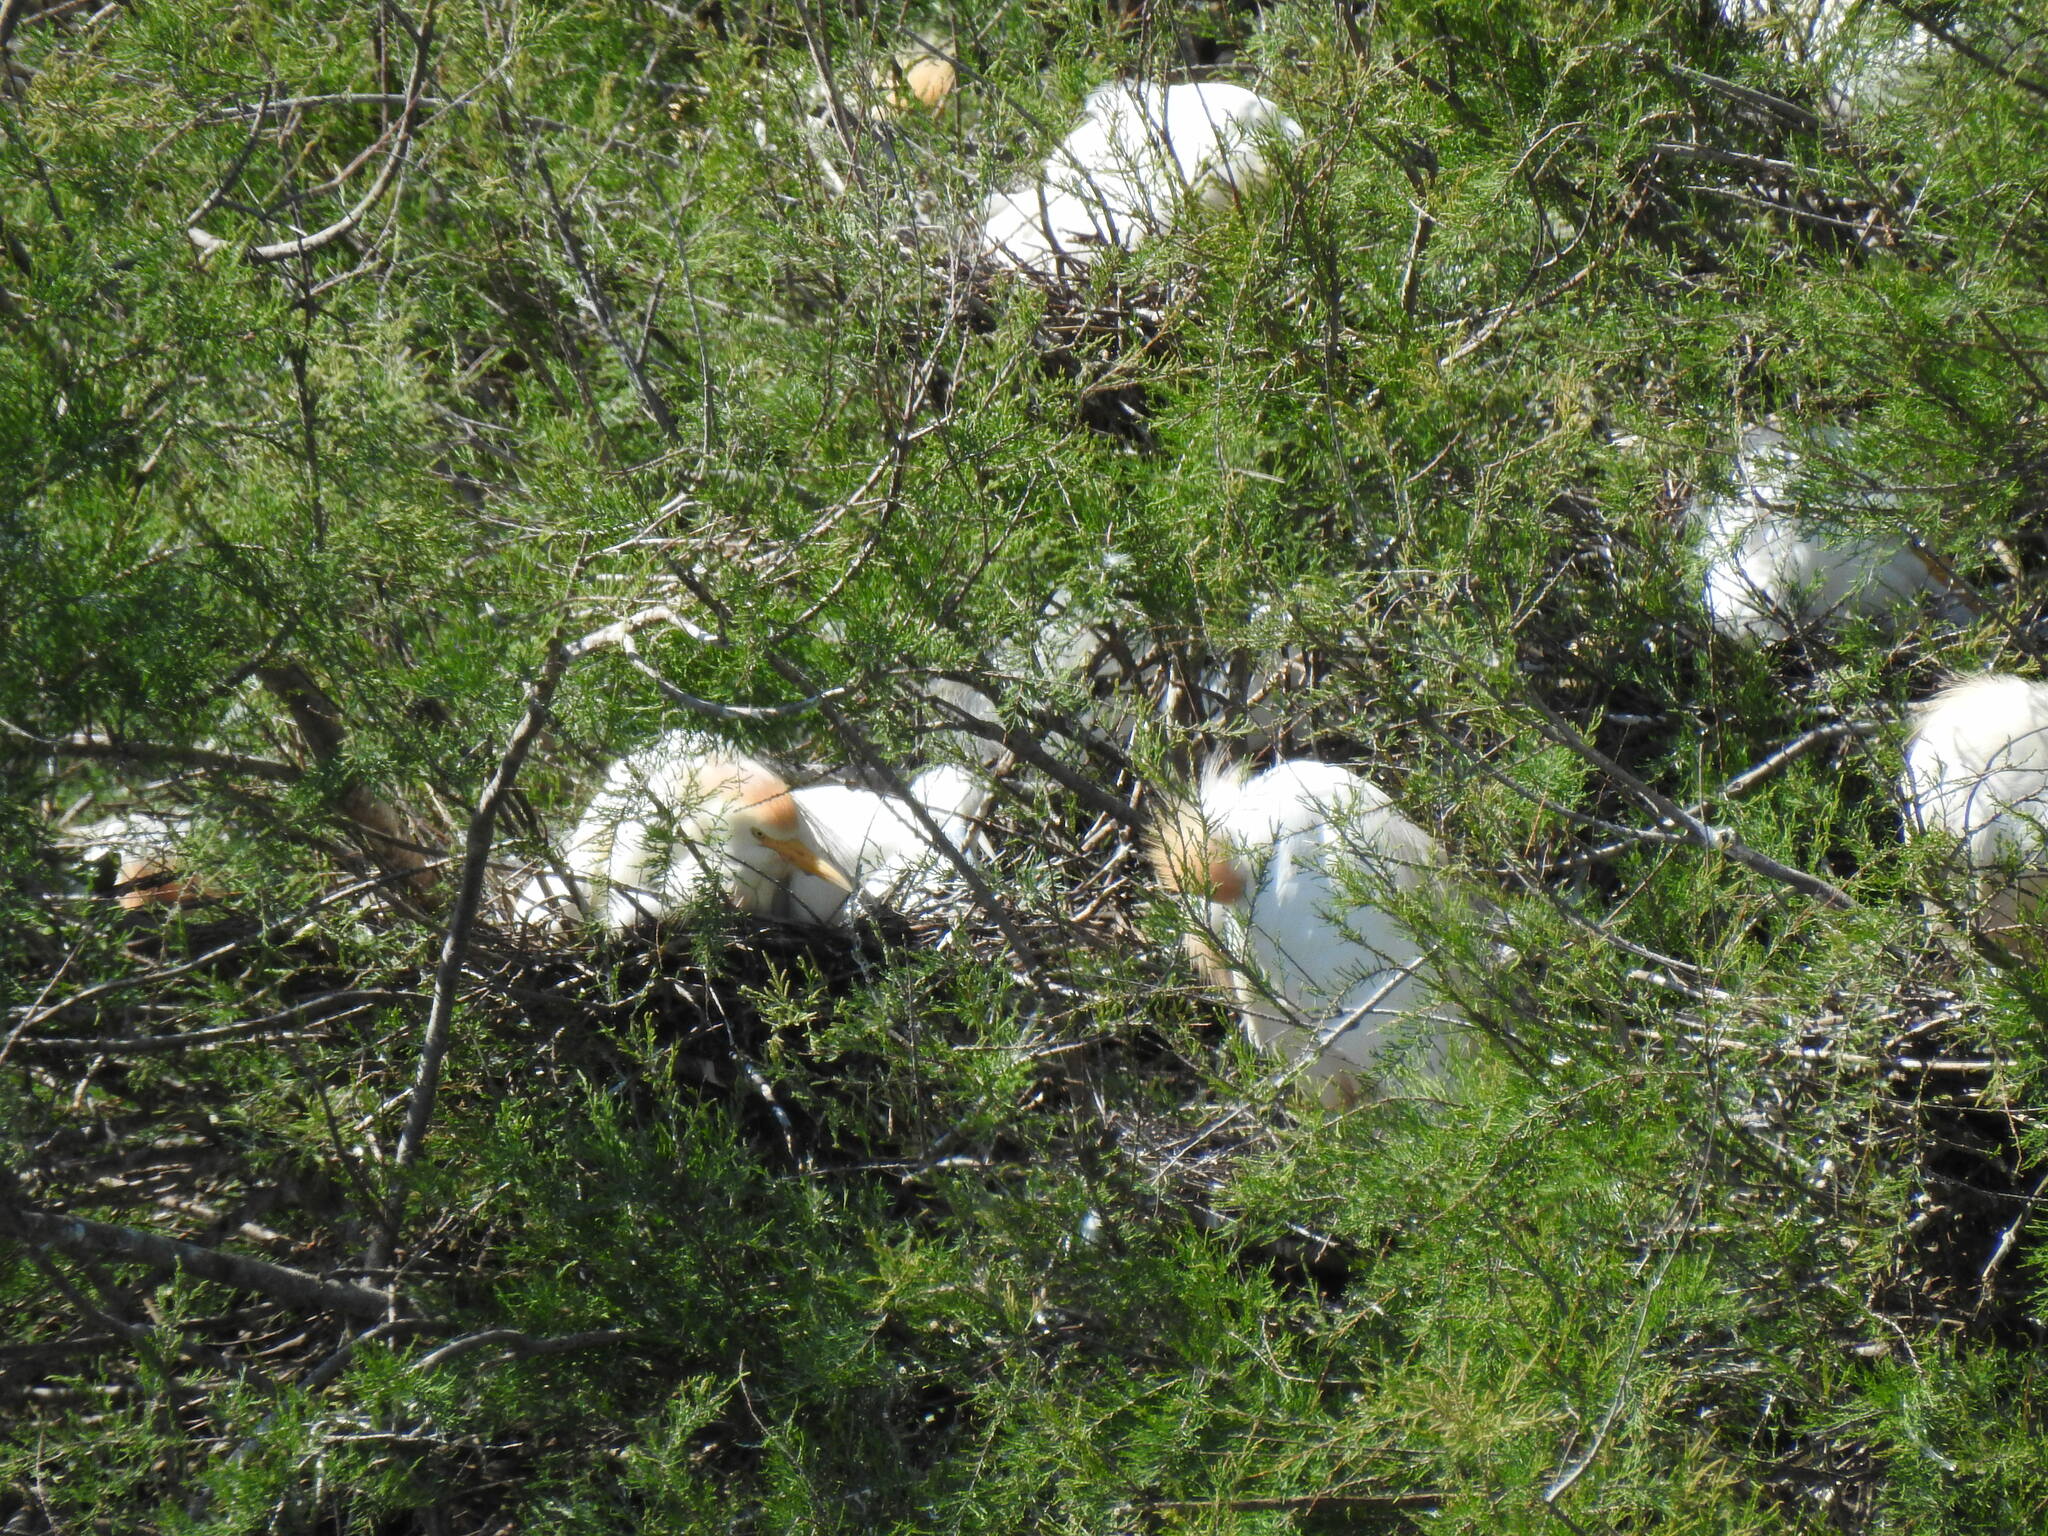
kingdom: Animalia
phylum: Chordata
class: Aves
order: Pelecaniformes
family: Ardeidae
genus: Bubulcus
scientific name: Bubulcus ibis
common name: Cattle egret
